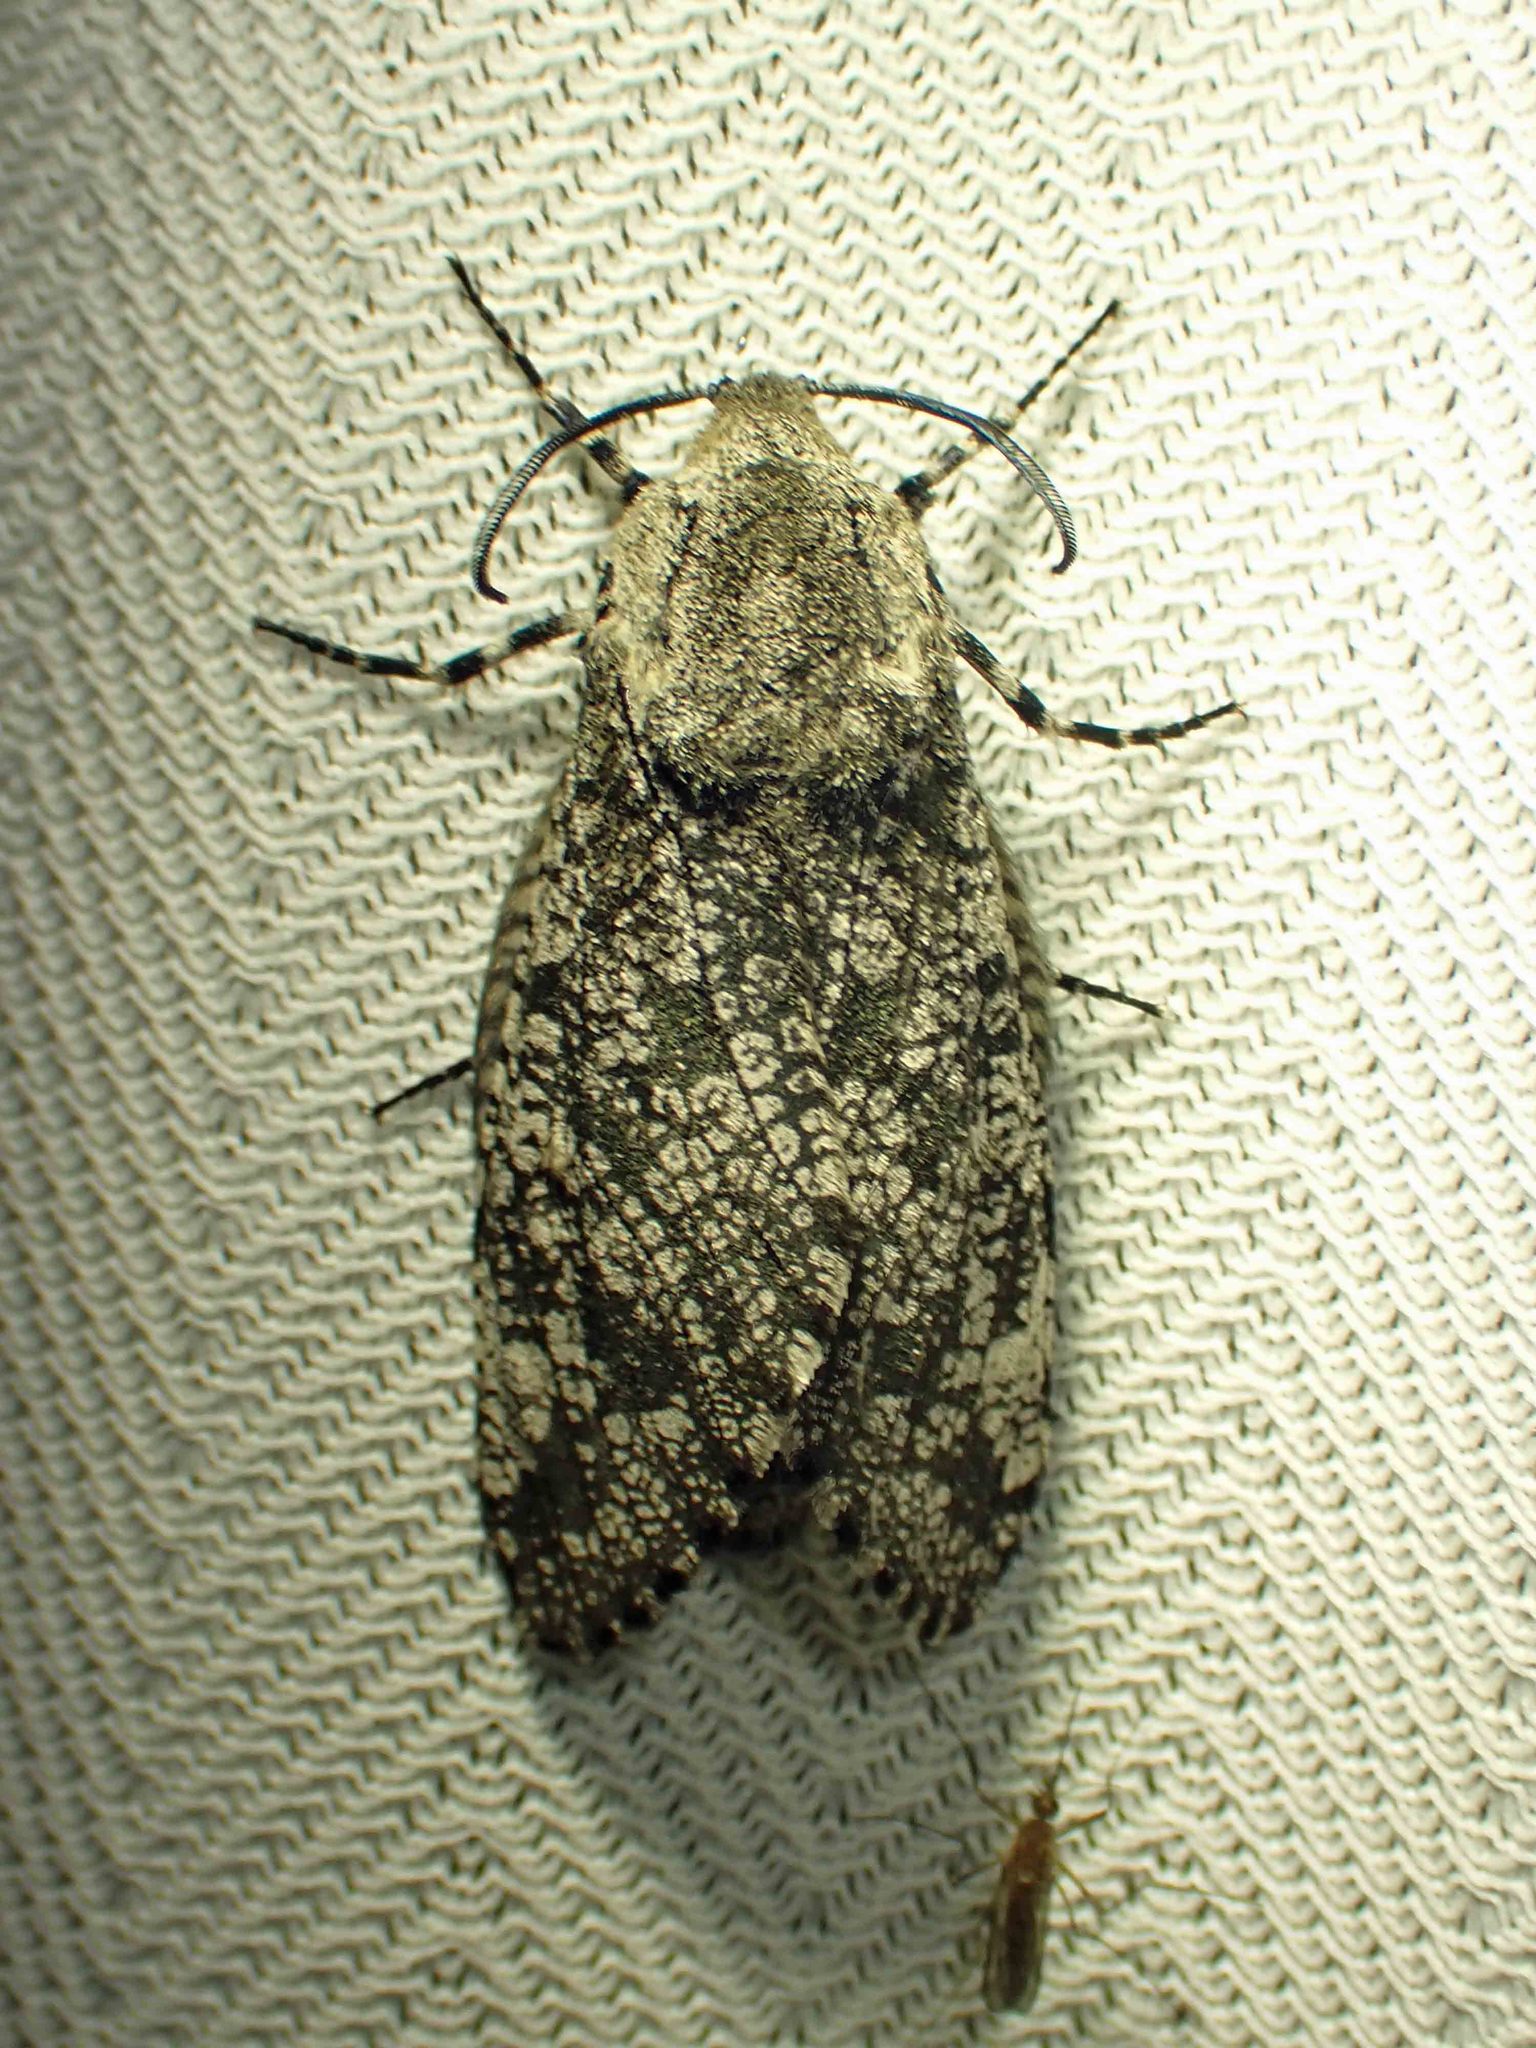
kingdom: Animalia
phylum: Arthropoda
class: Insecta
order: Lepidoptera
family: Cossidae
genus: Prionoxystus
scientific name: Prionoxystus robiniae
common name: Carpenterworm
